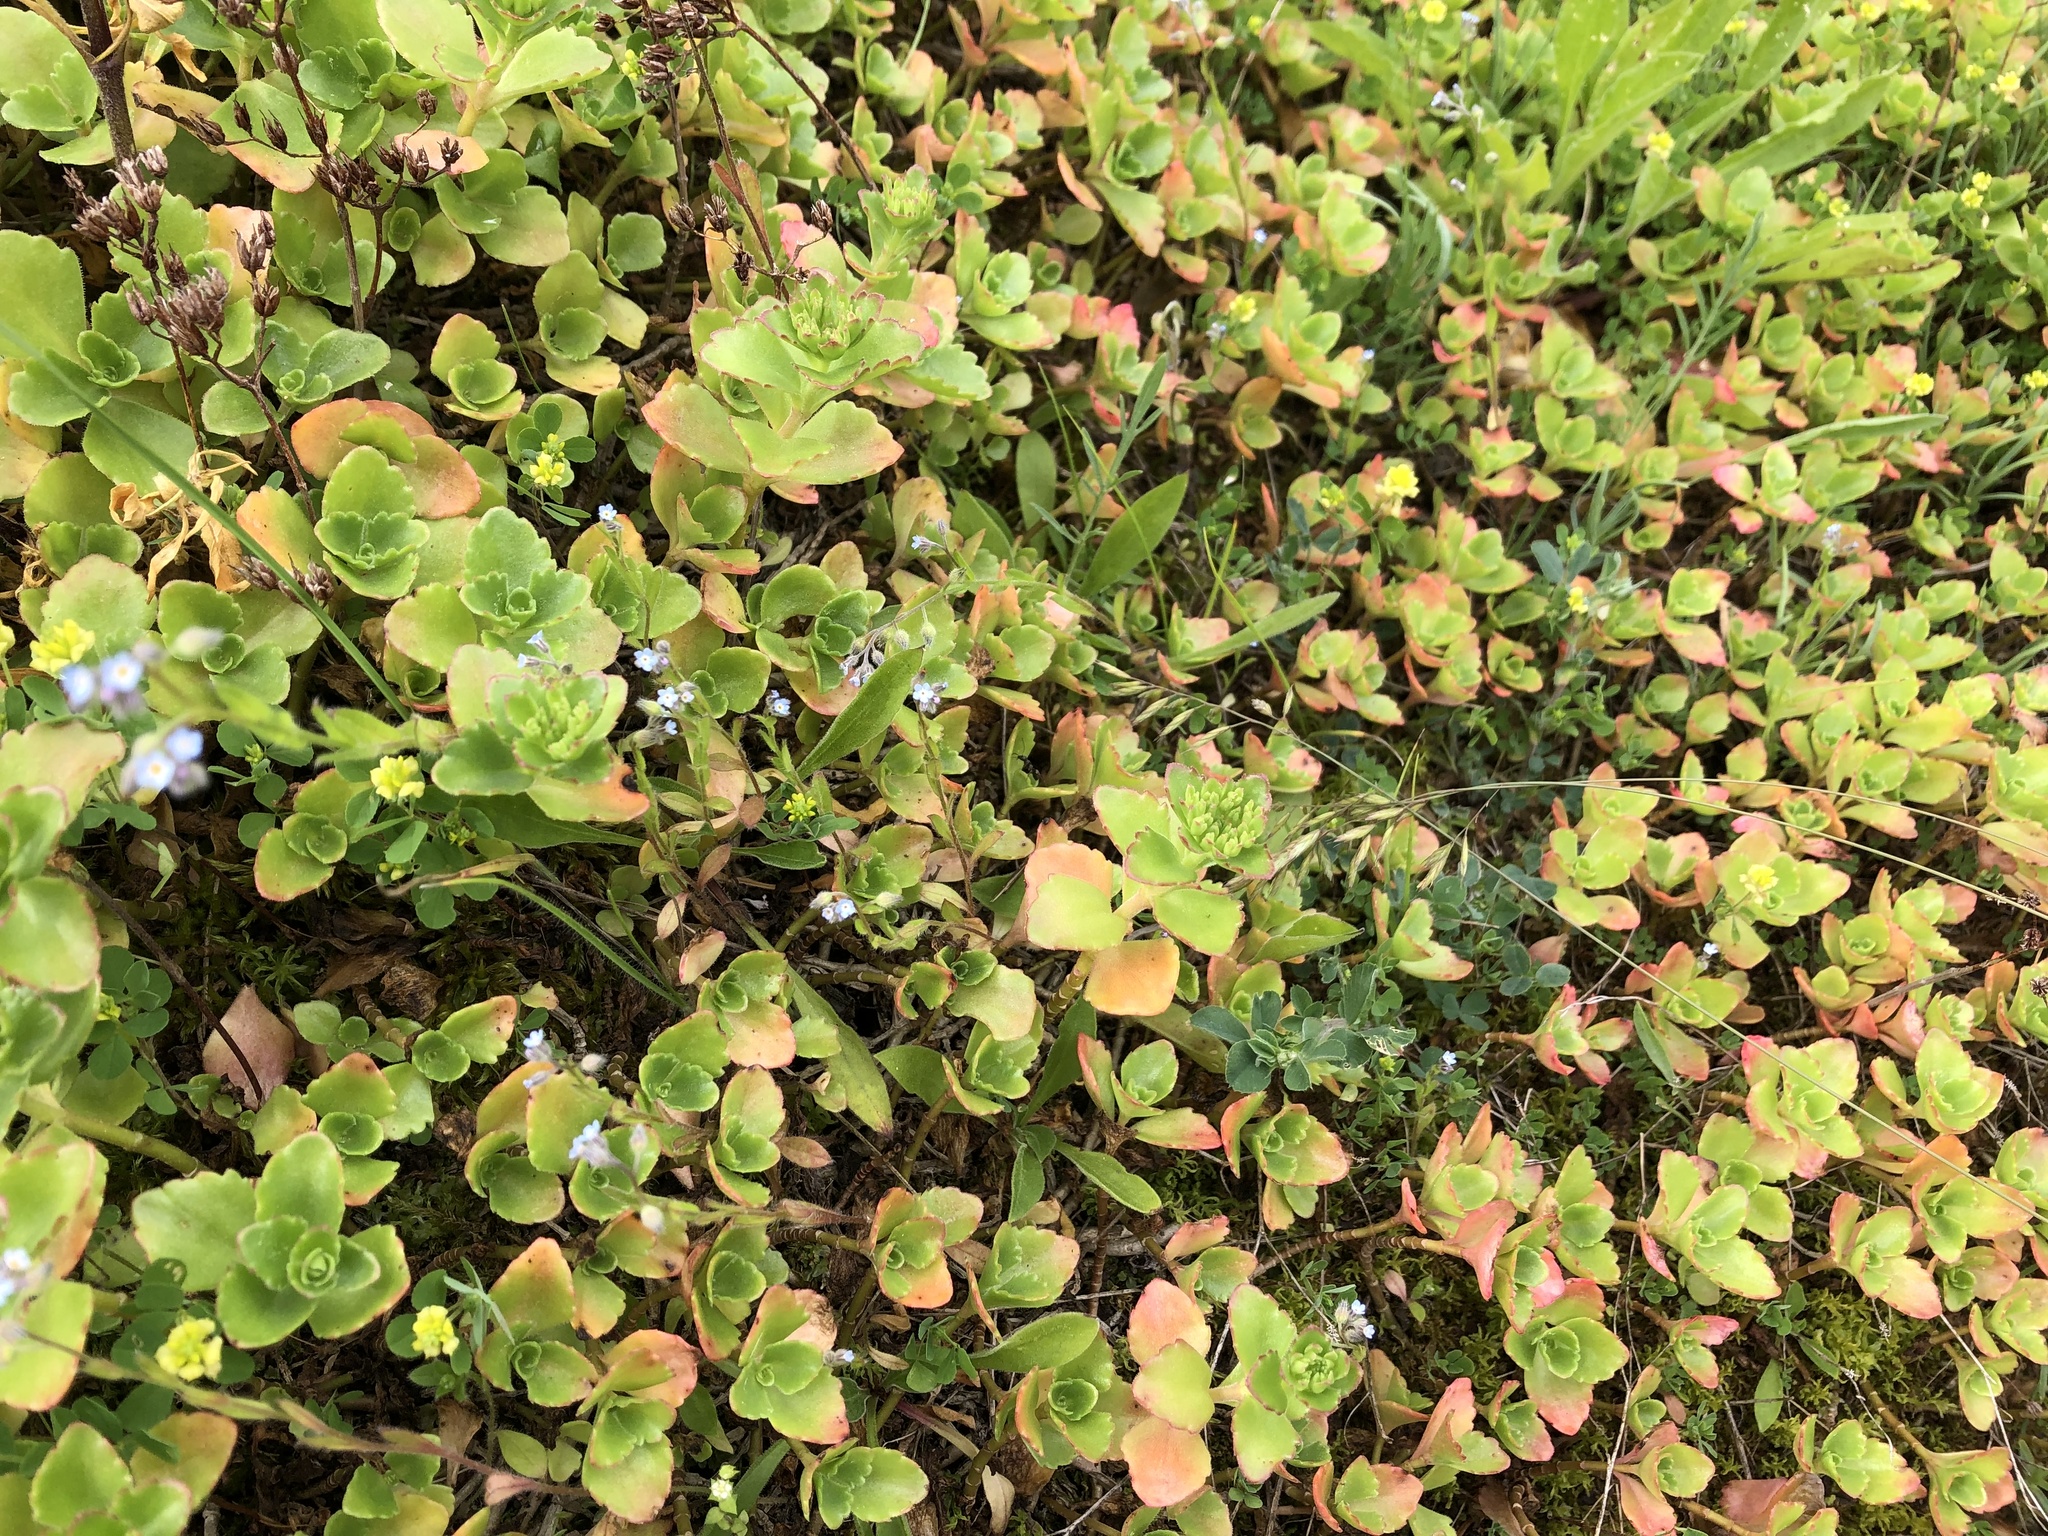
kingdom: Plantae
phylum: Tracheophyta
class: Magnoliopsida
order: Saxifragales
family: Crassulaceae
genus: Phedimus
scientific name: Phedimus spurius
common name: Caucasian stonecrop
